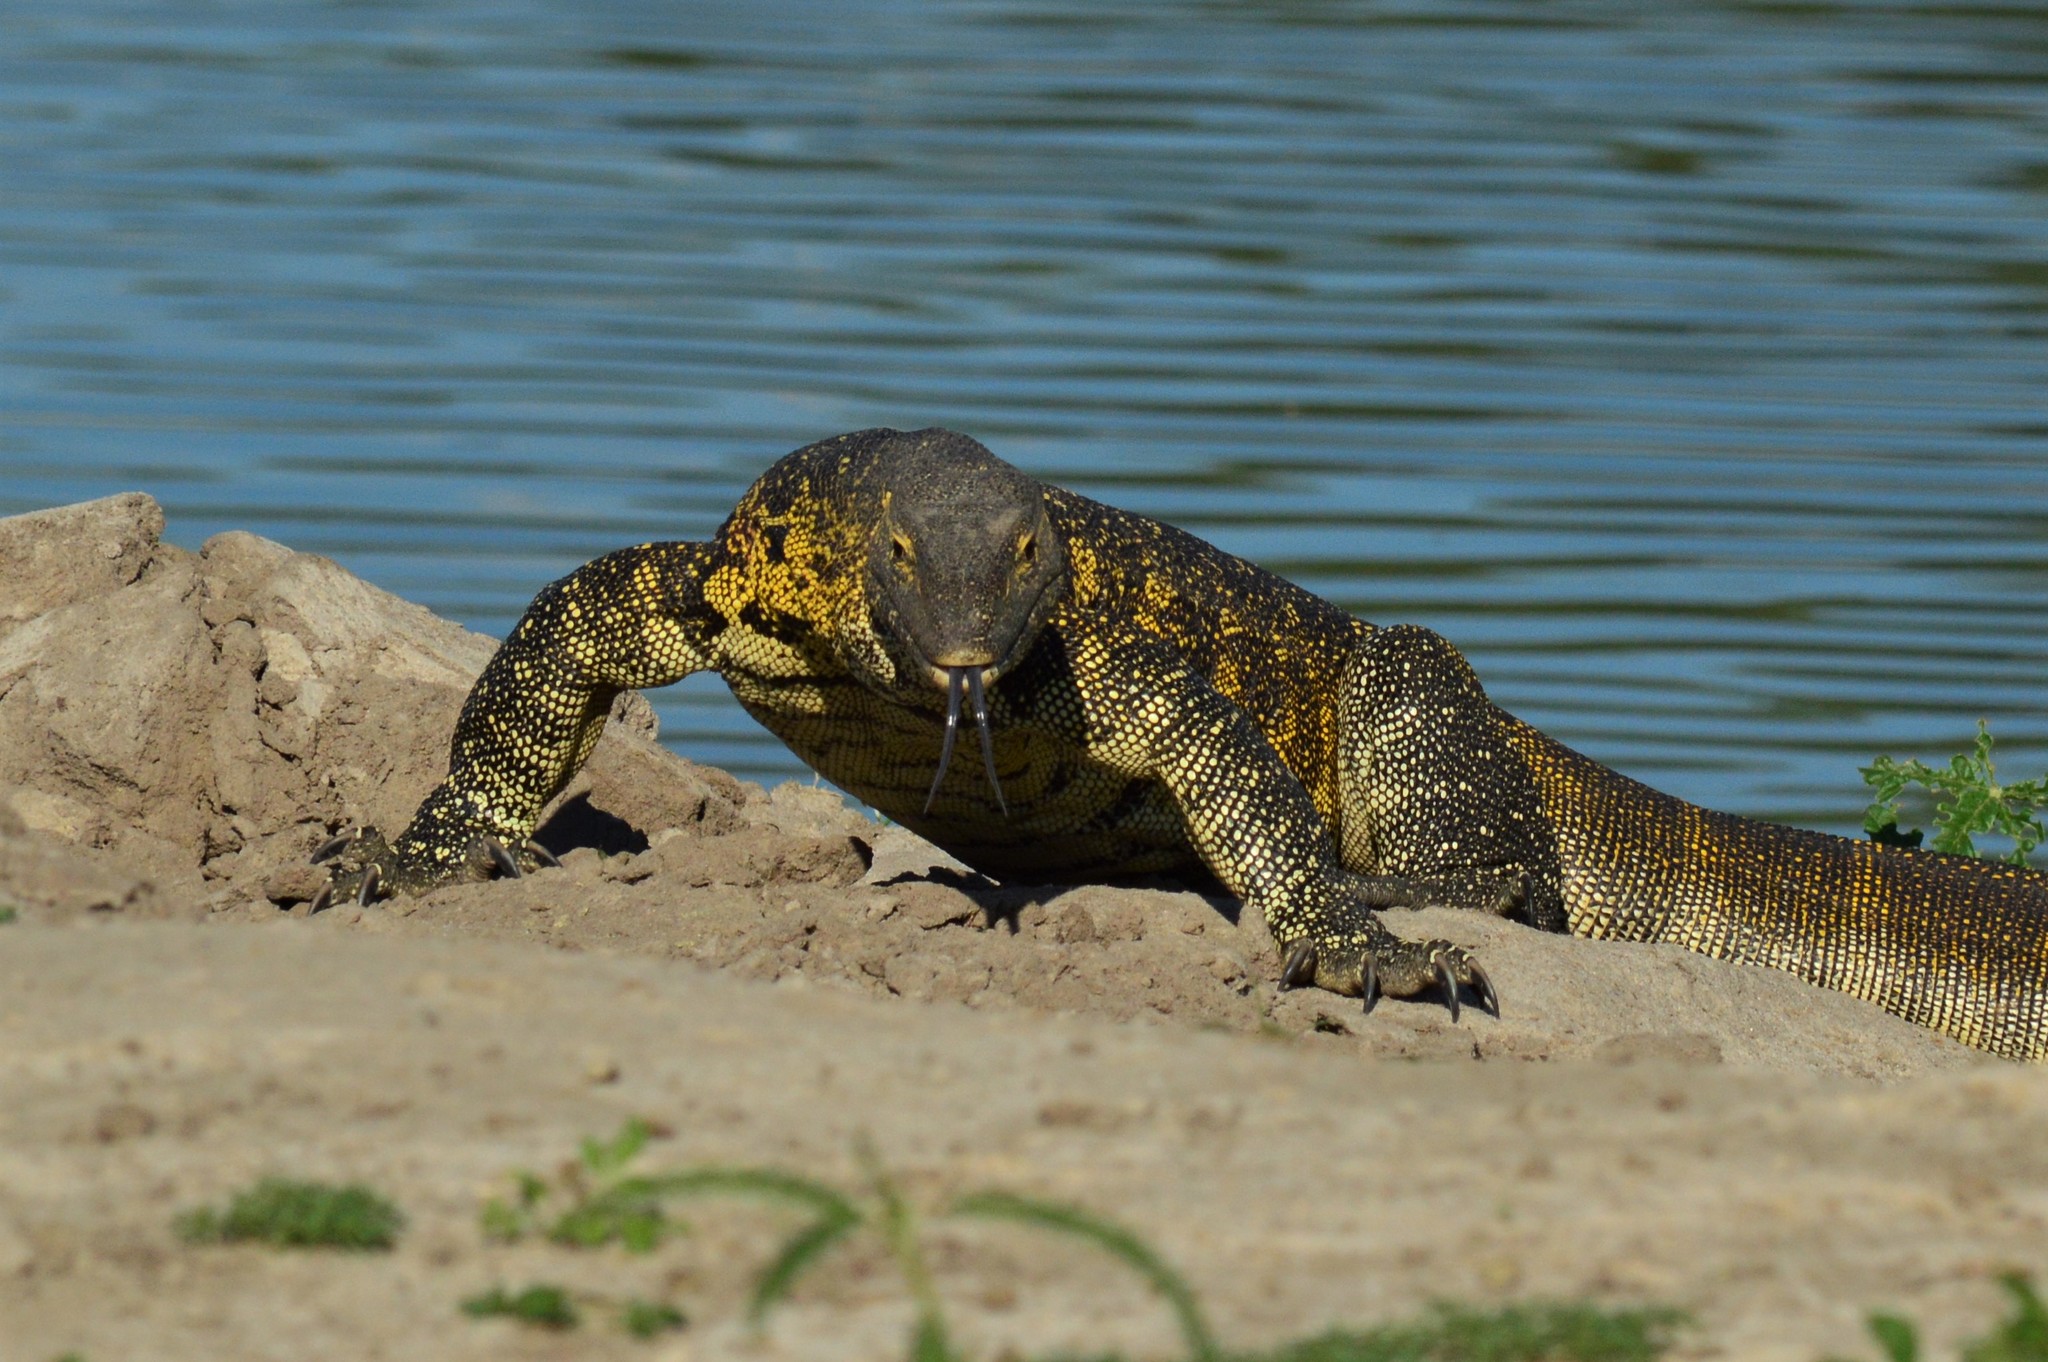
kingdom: Animalia
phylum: Chordata
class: Squamata
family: Varanidae
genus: Varanus
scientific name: Varanus niloticus
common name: Nile monitor
